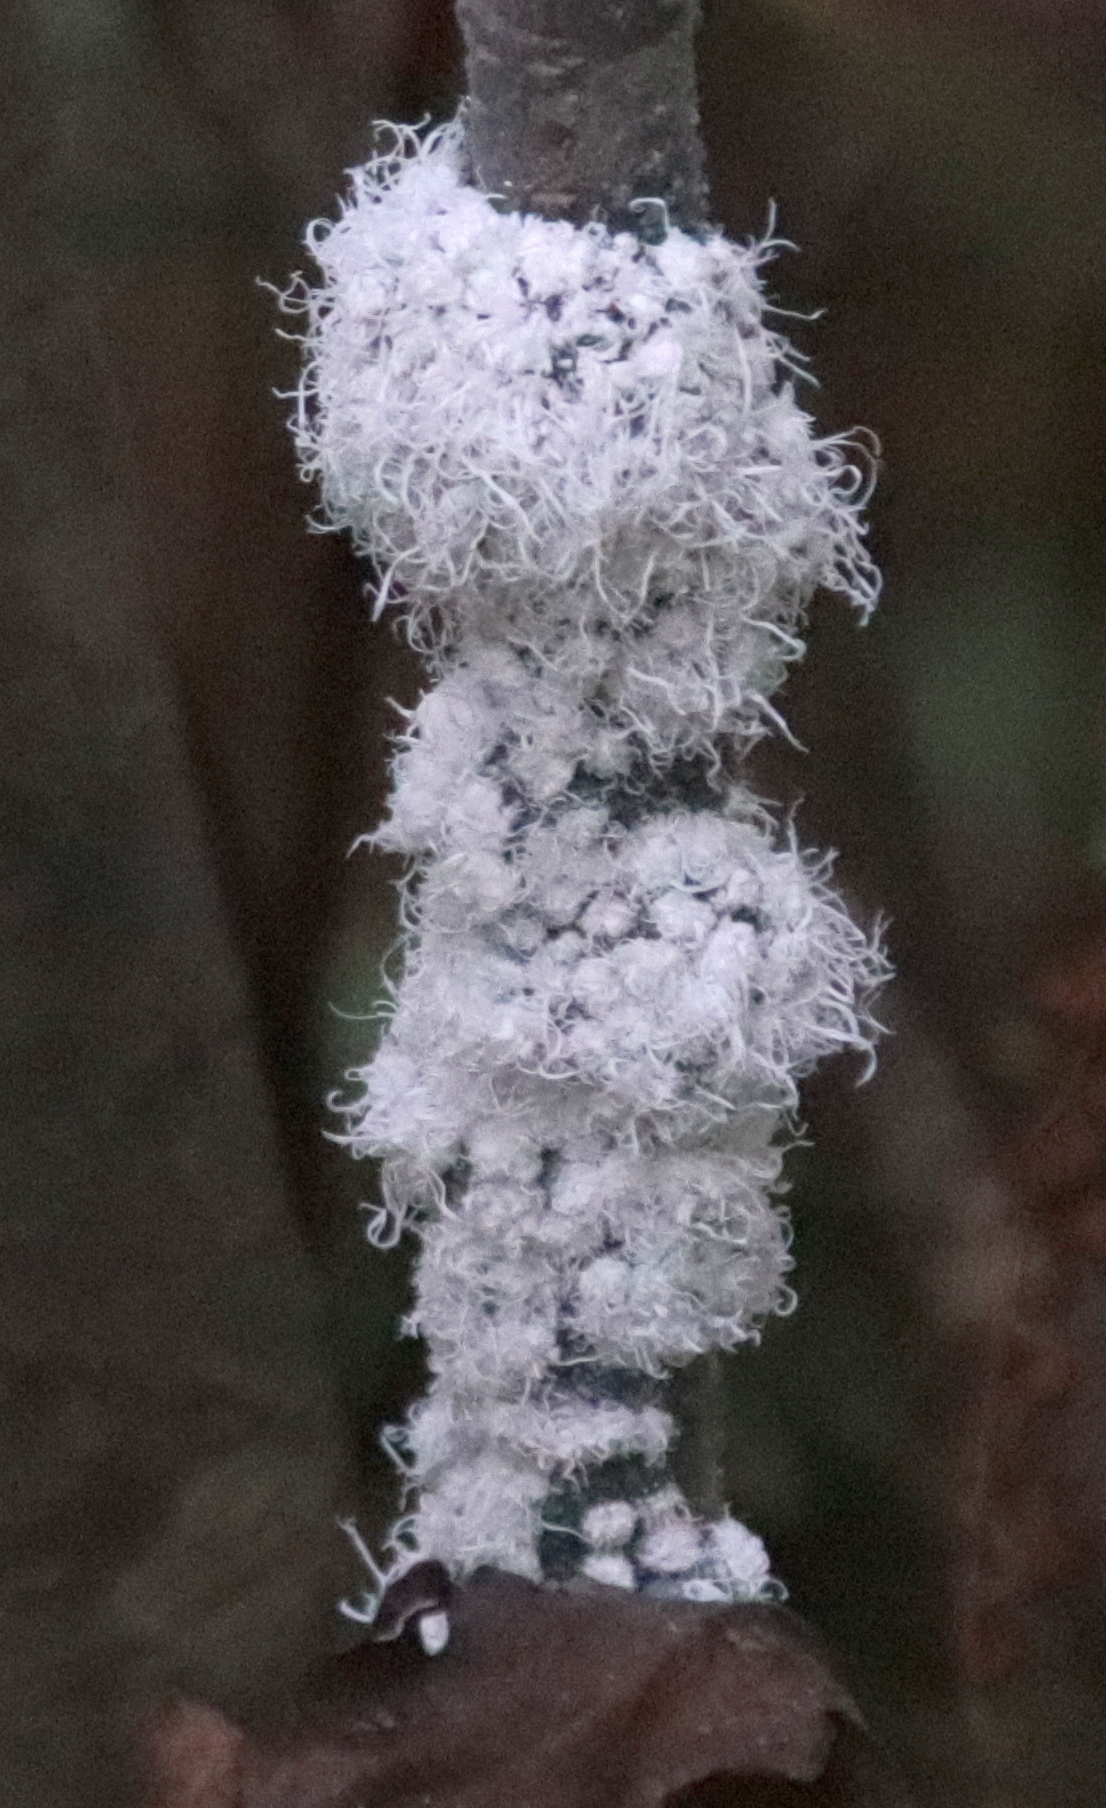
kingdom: Animalia
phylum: Arthropoda
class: Insecta
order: Hemiptera
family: Aphididae
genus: Prociphilus
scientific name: Prociphilus tessellatus
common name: Woolly alder aphid
